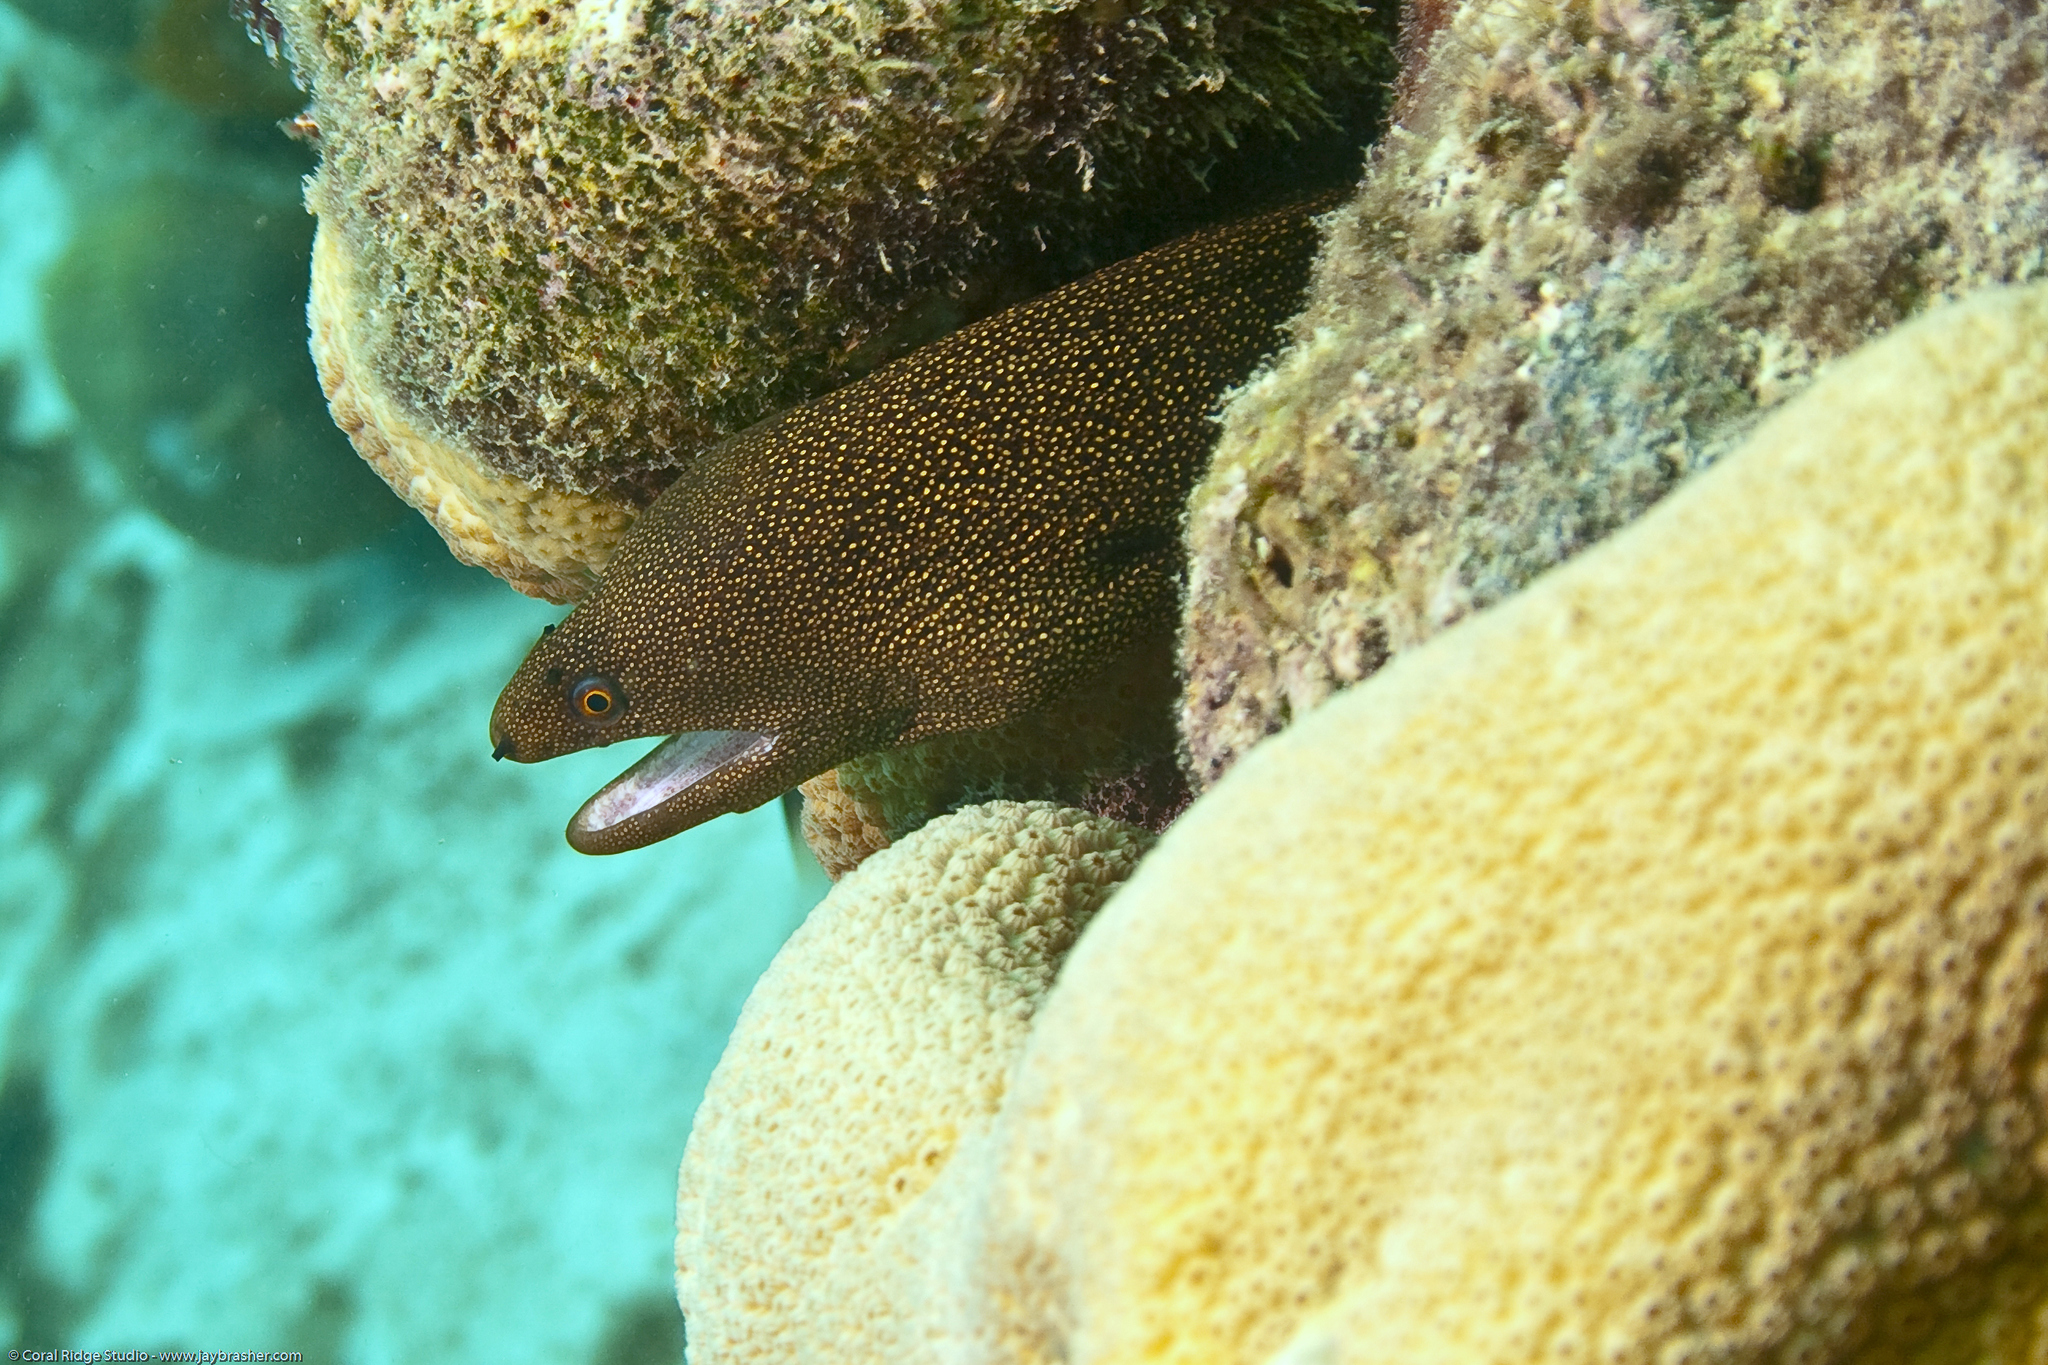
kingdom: Animalia
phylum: Chordata
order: Anguilliformes
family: Muraenidae
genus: Gymnothorax
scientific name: Gymnothorax miliaris
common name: Goldentail moray
